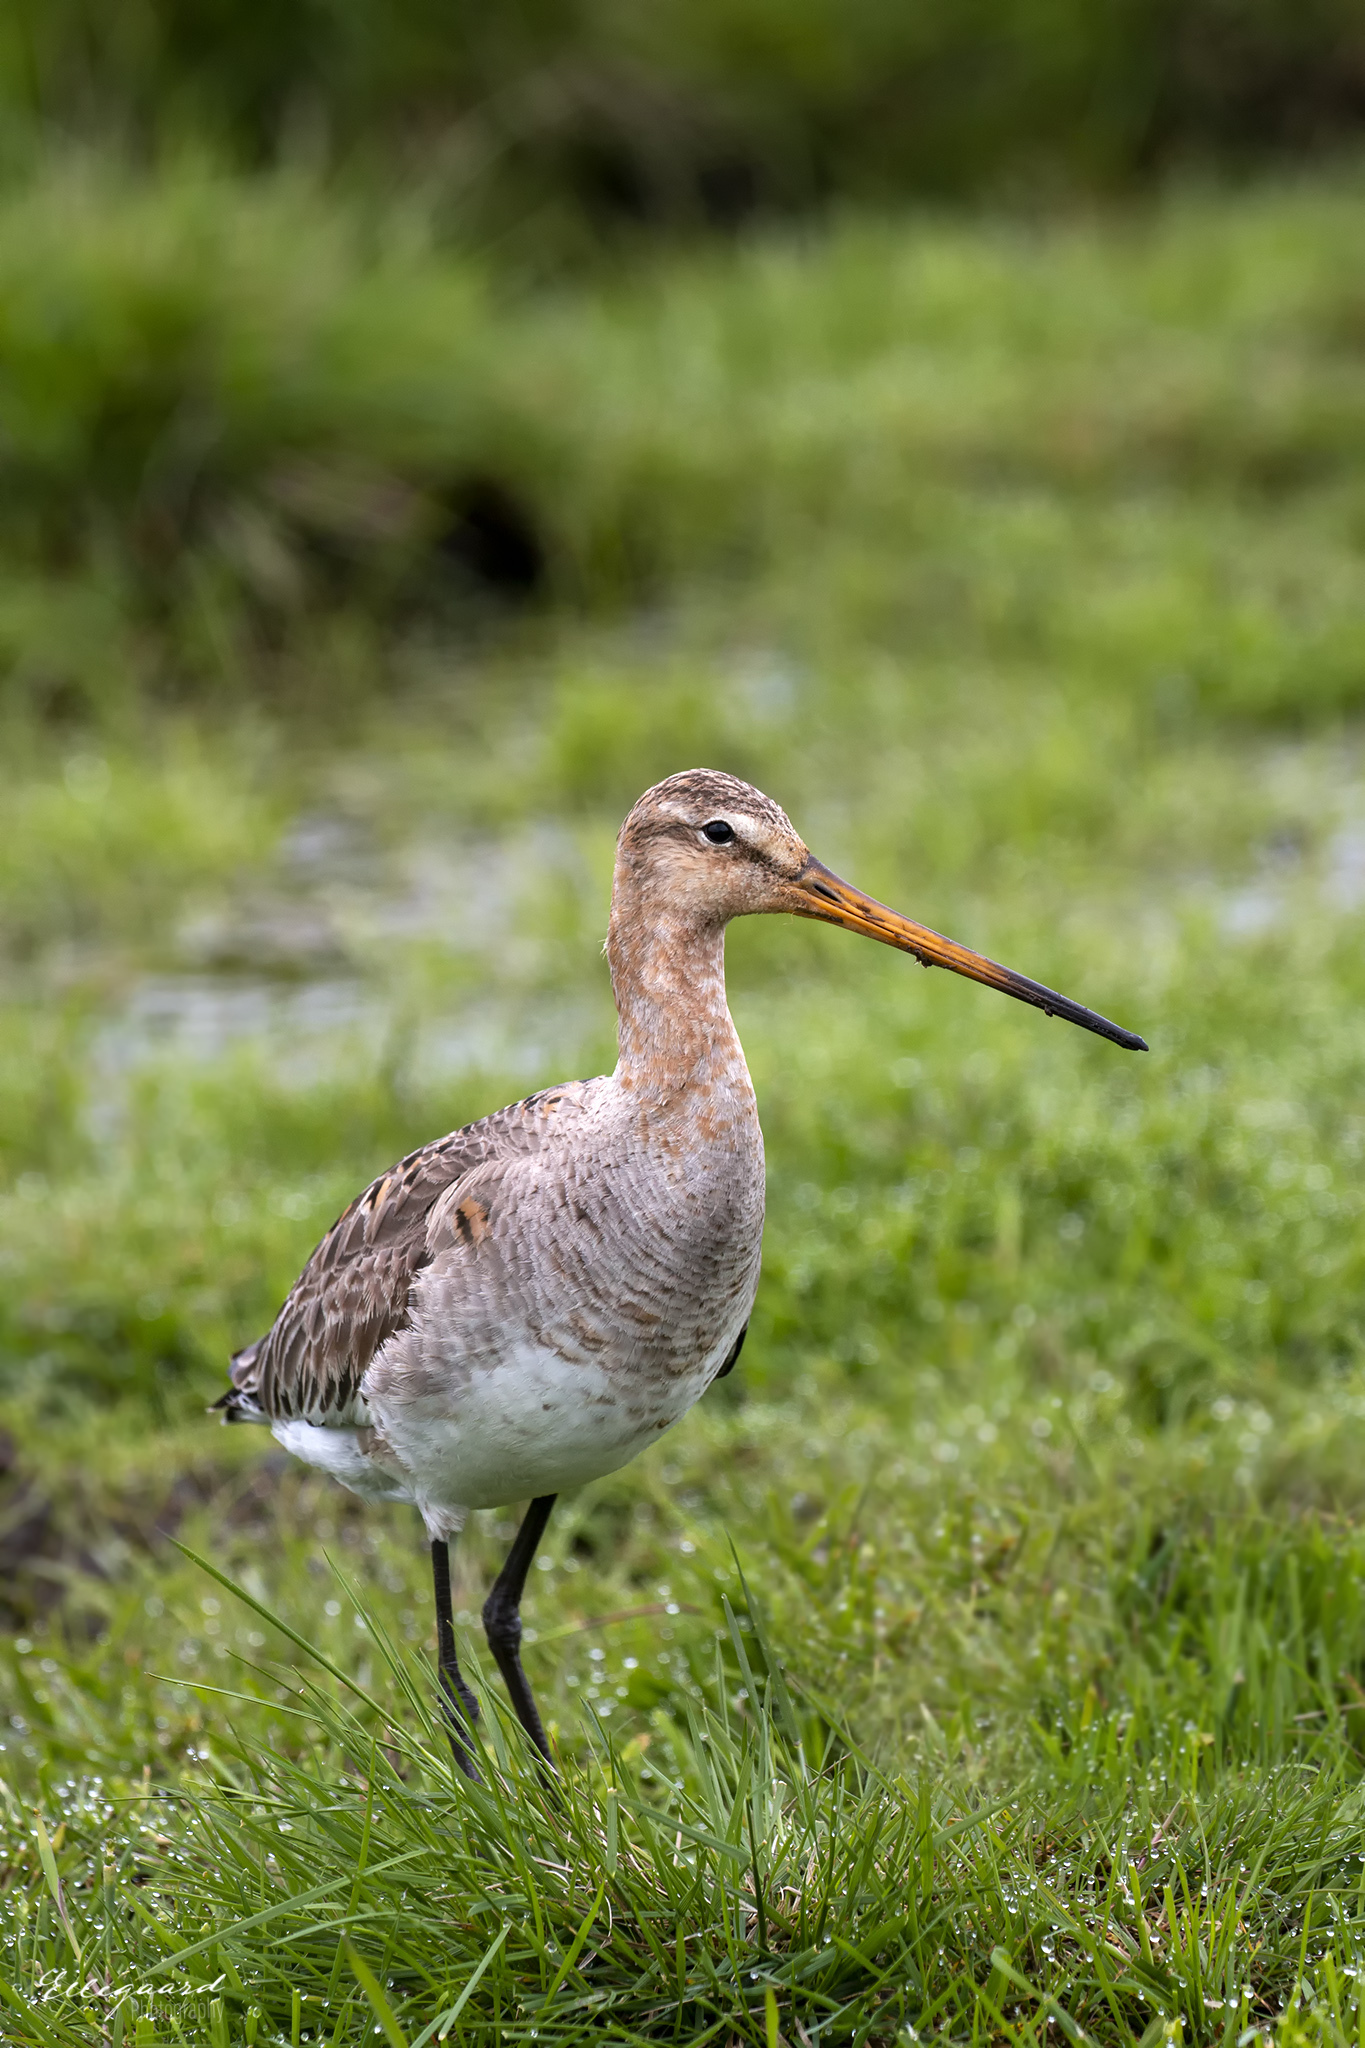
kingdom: Animalia
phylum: Chordata
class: Aves
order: Charadriiformes
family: Scolopacidae
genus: Limosa
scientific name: Limosa limosa
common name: Black-tailed godwit
